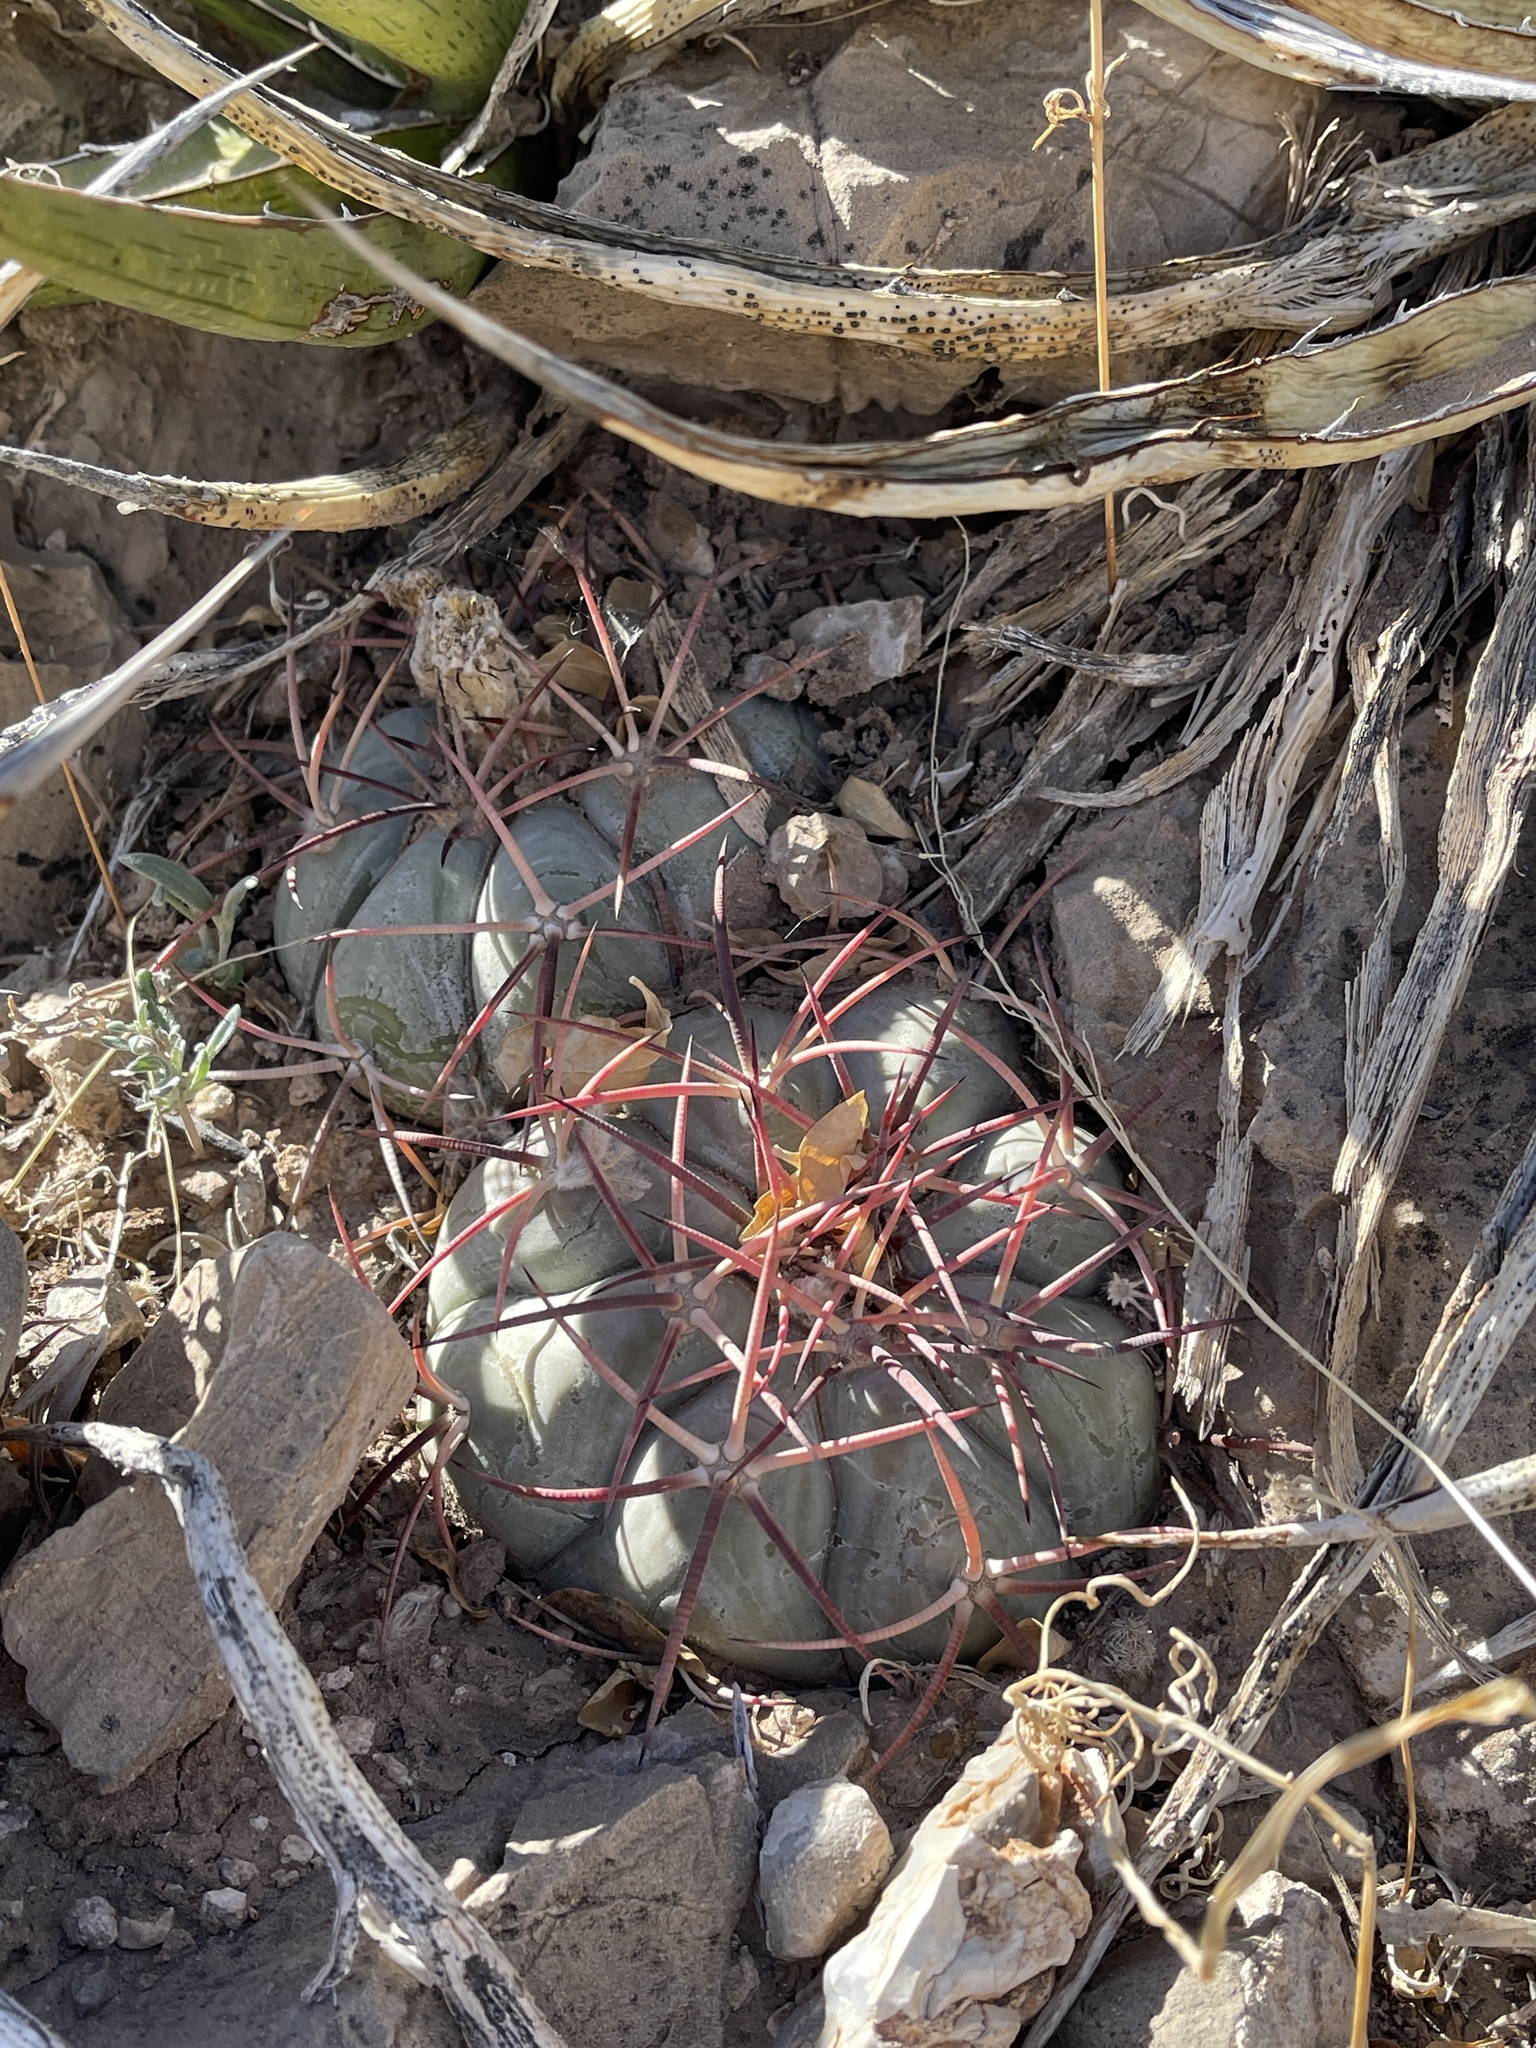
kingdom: Plantae
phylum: Tracheophyta
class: Magnoliopsida
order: Caryophyllales
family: Cactaceae
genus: Echinocactus
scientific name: Echinocactus horizonthalonius
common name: Devilshead
